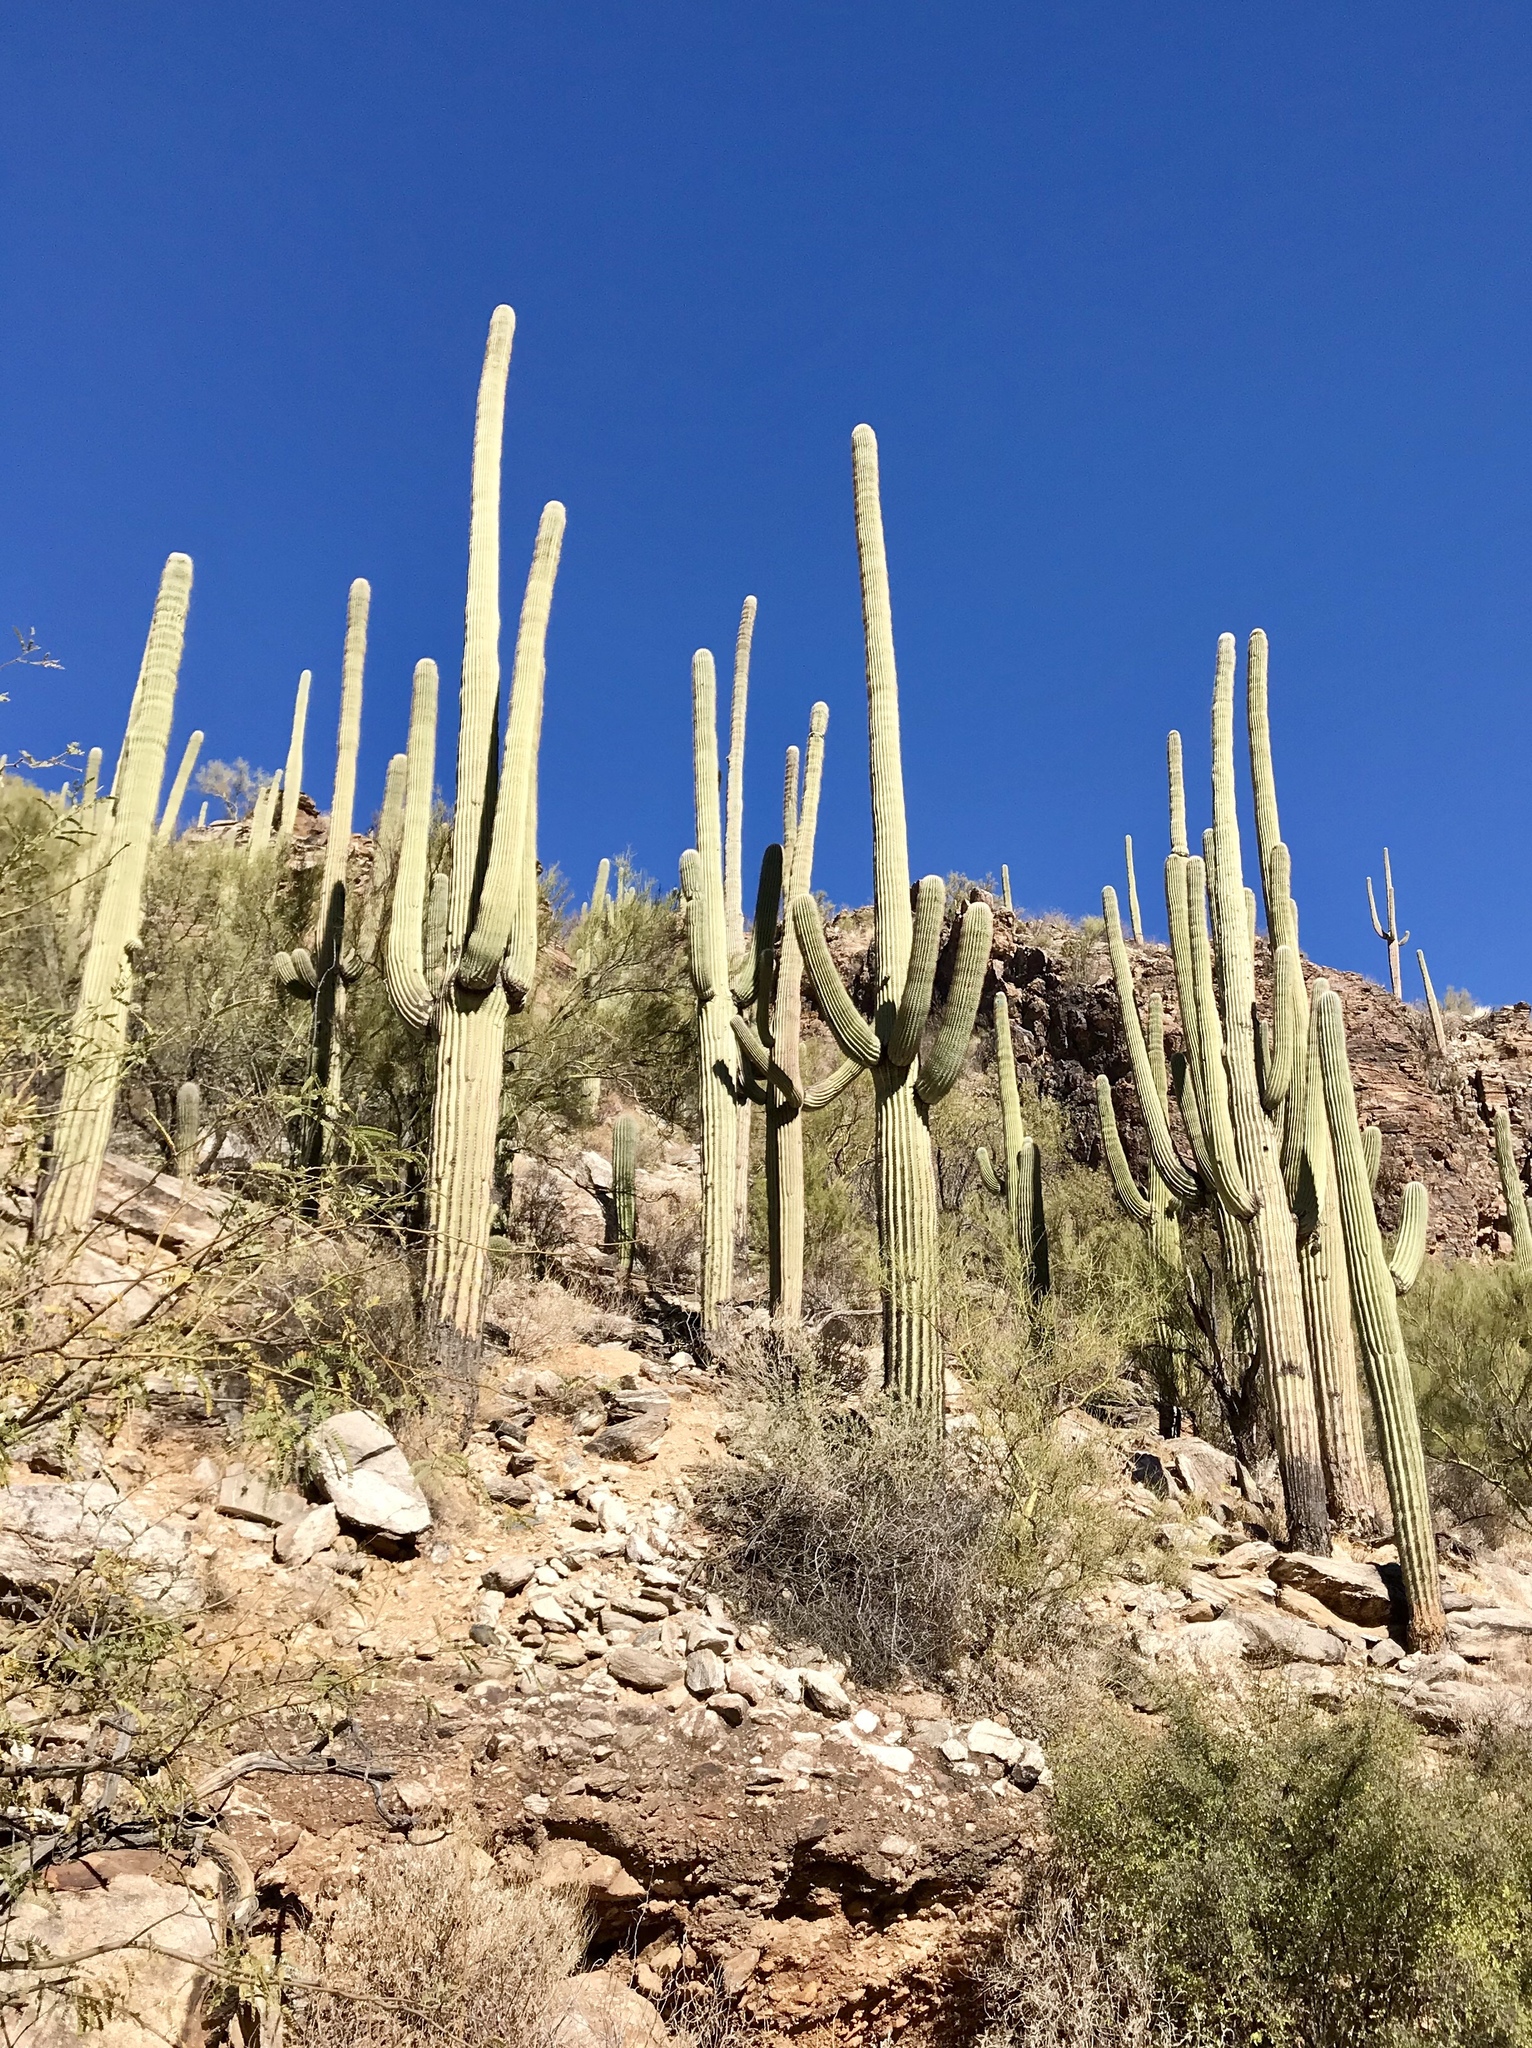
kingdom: Plantae
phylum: Tracheophyta
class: Magnoliopsida
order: Caryophyllales
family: Cactaceae
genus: Carnegiea
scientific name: Carnegiea gigantea
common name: Saguaro
